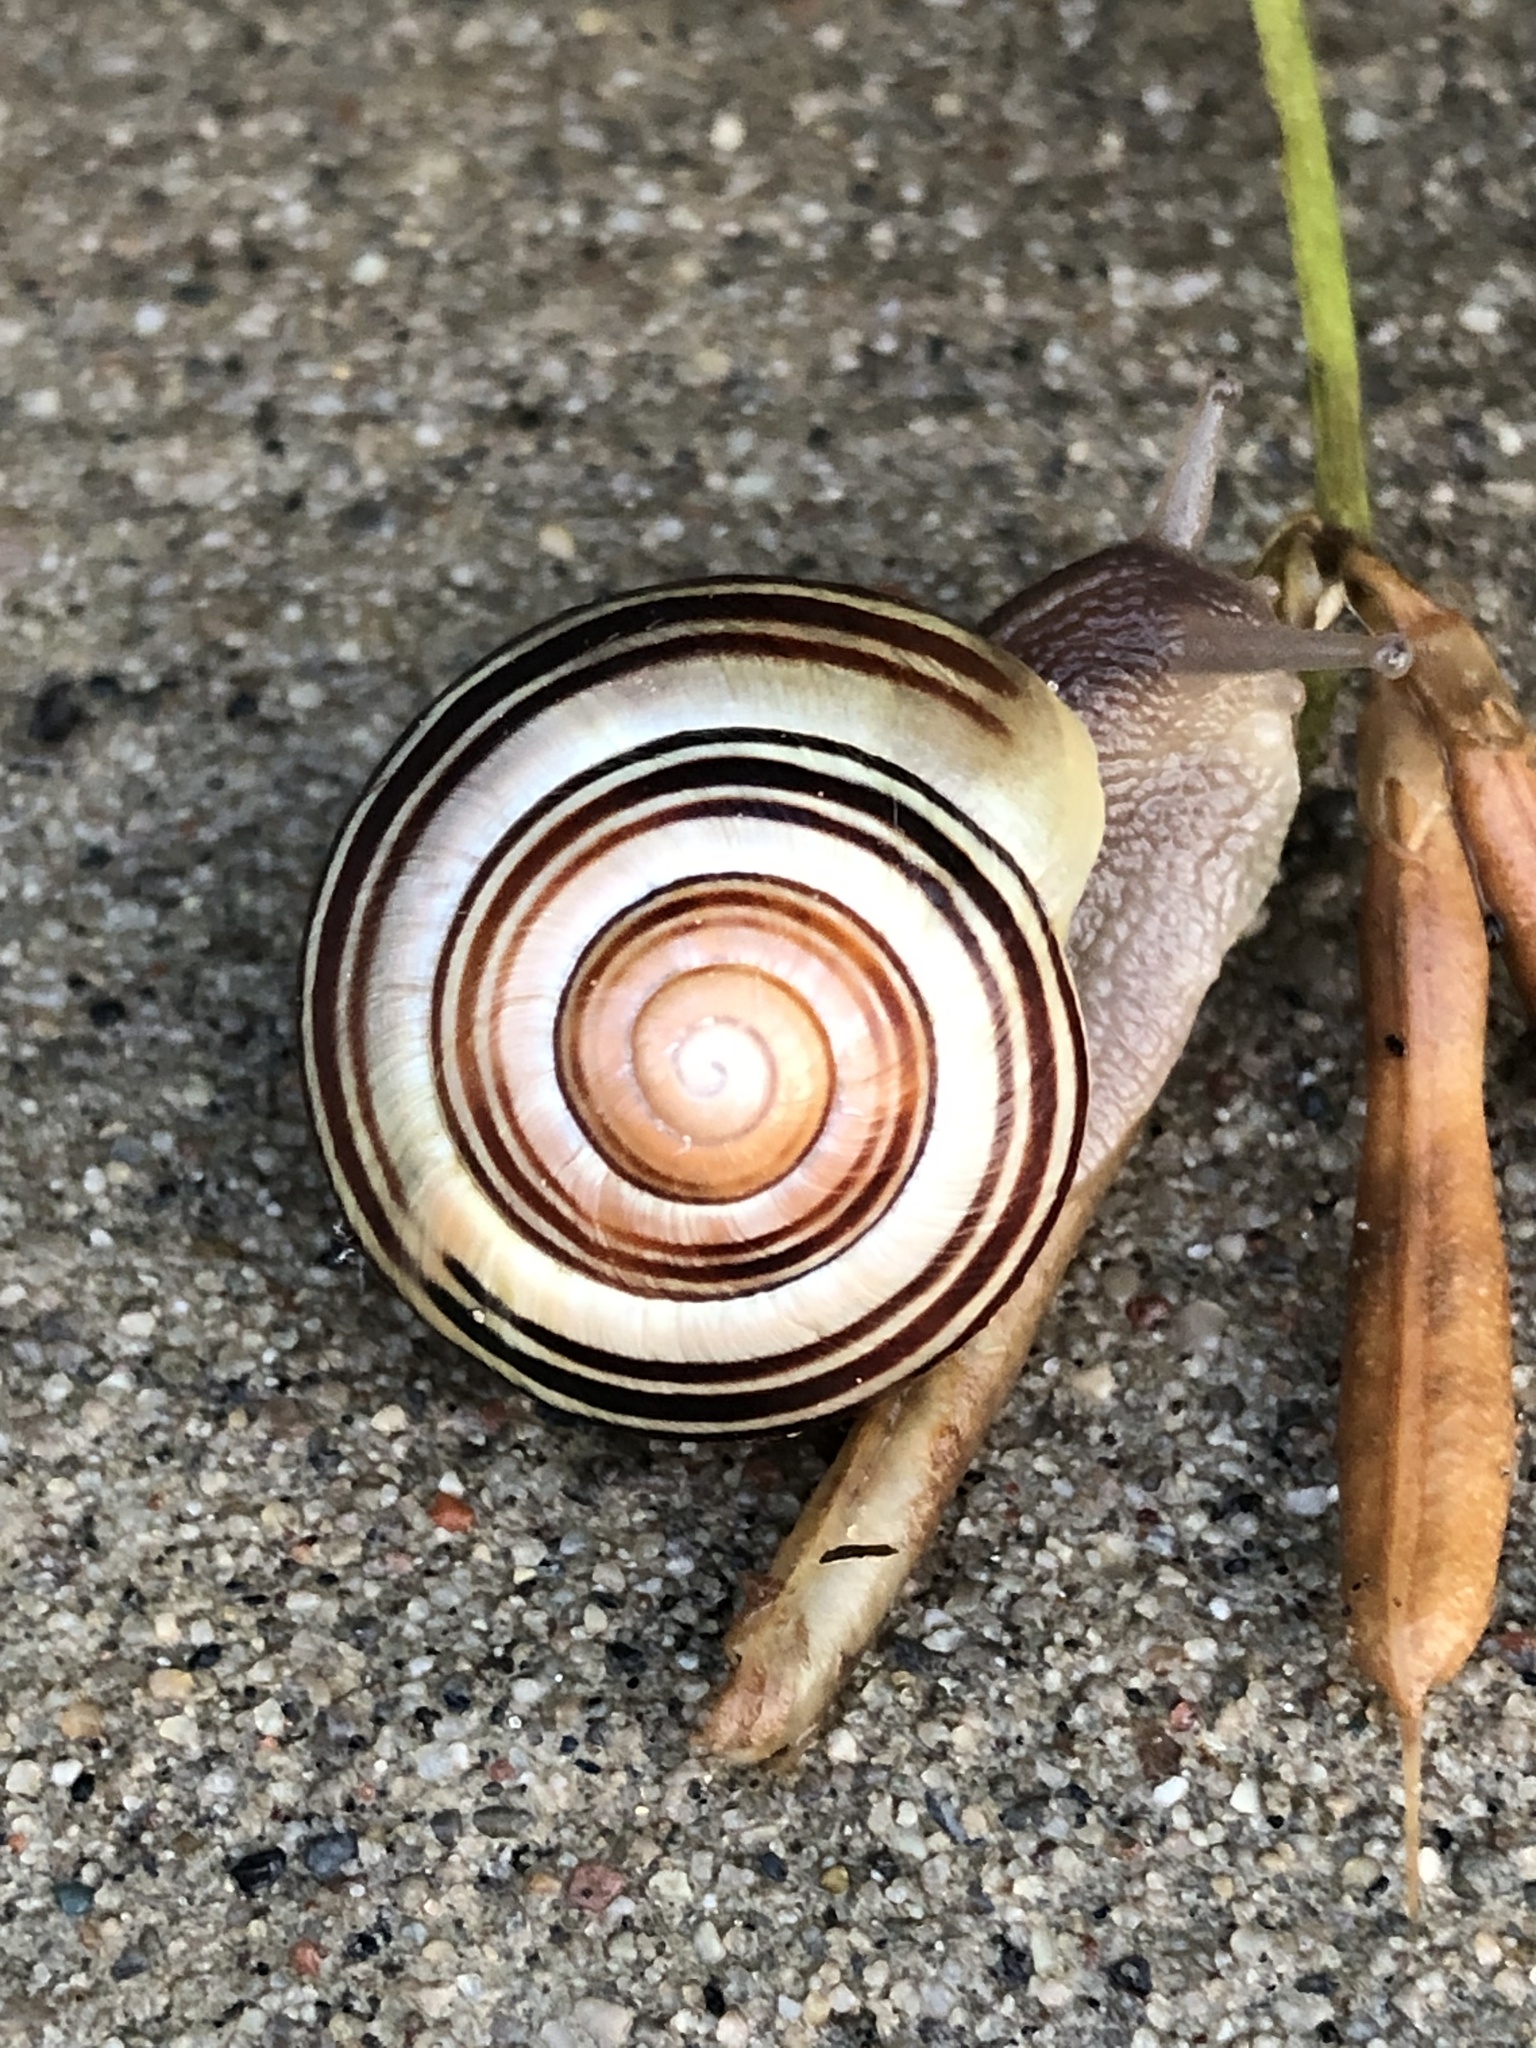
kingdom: Animalia
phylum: Mollusca
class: Gastropoda
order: Stylommatophora
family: Helicidae
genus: Cepaea
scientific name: Cepaea nemoralis
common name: Grovesnail
